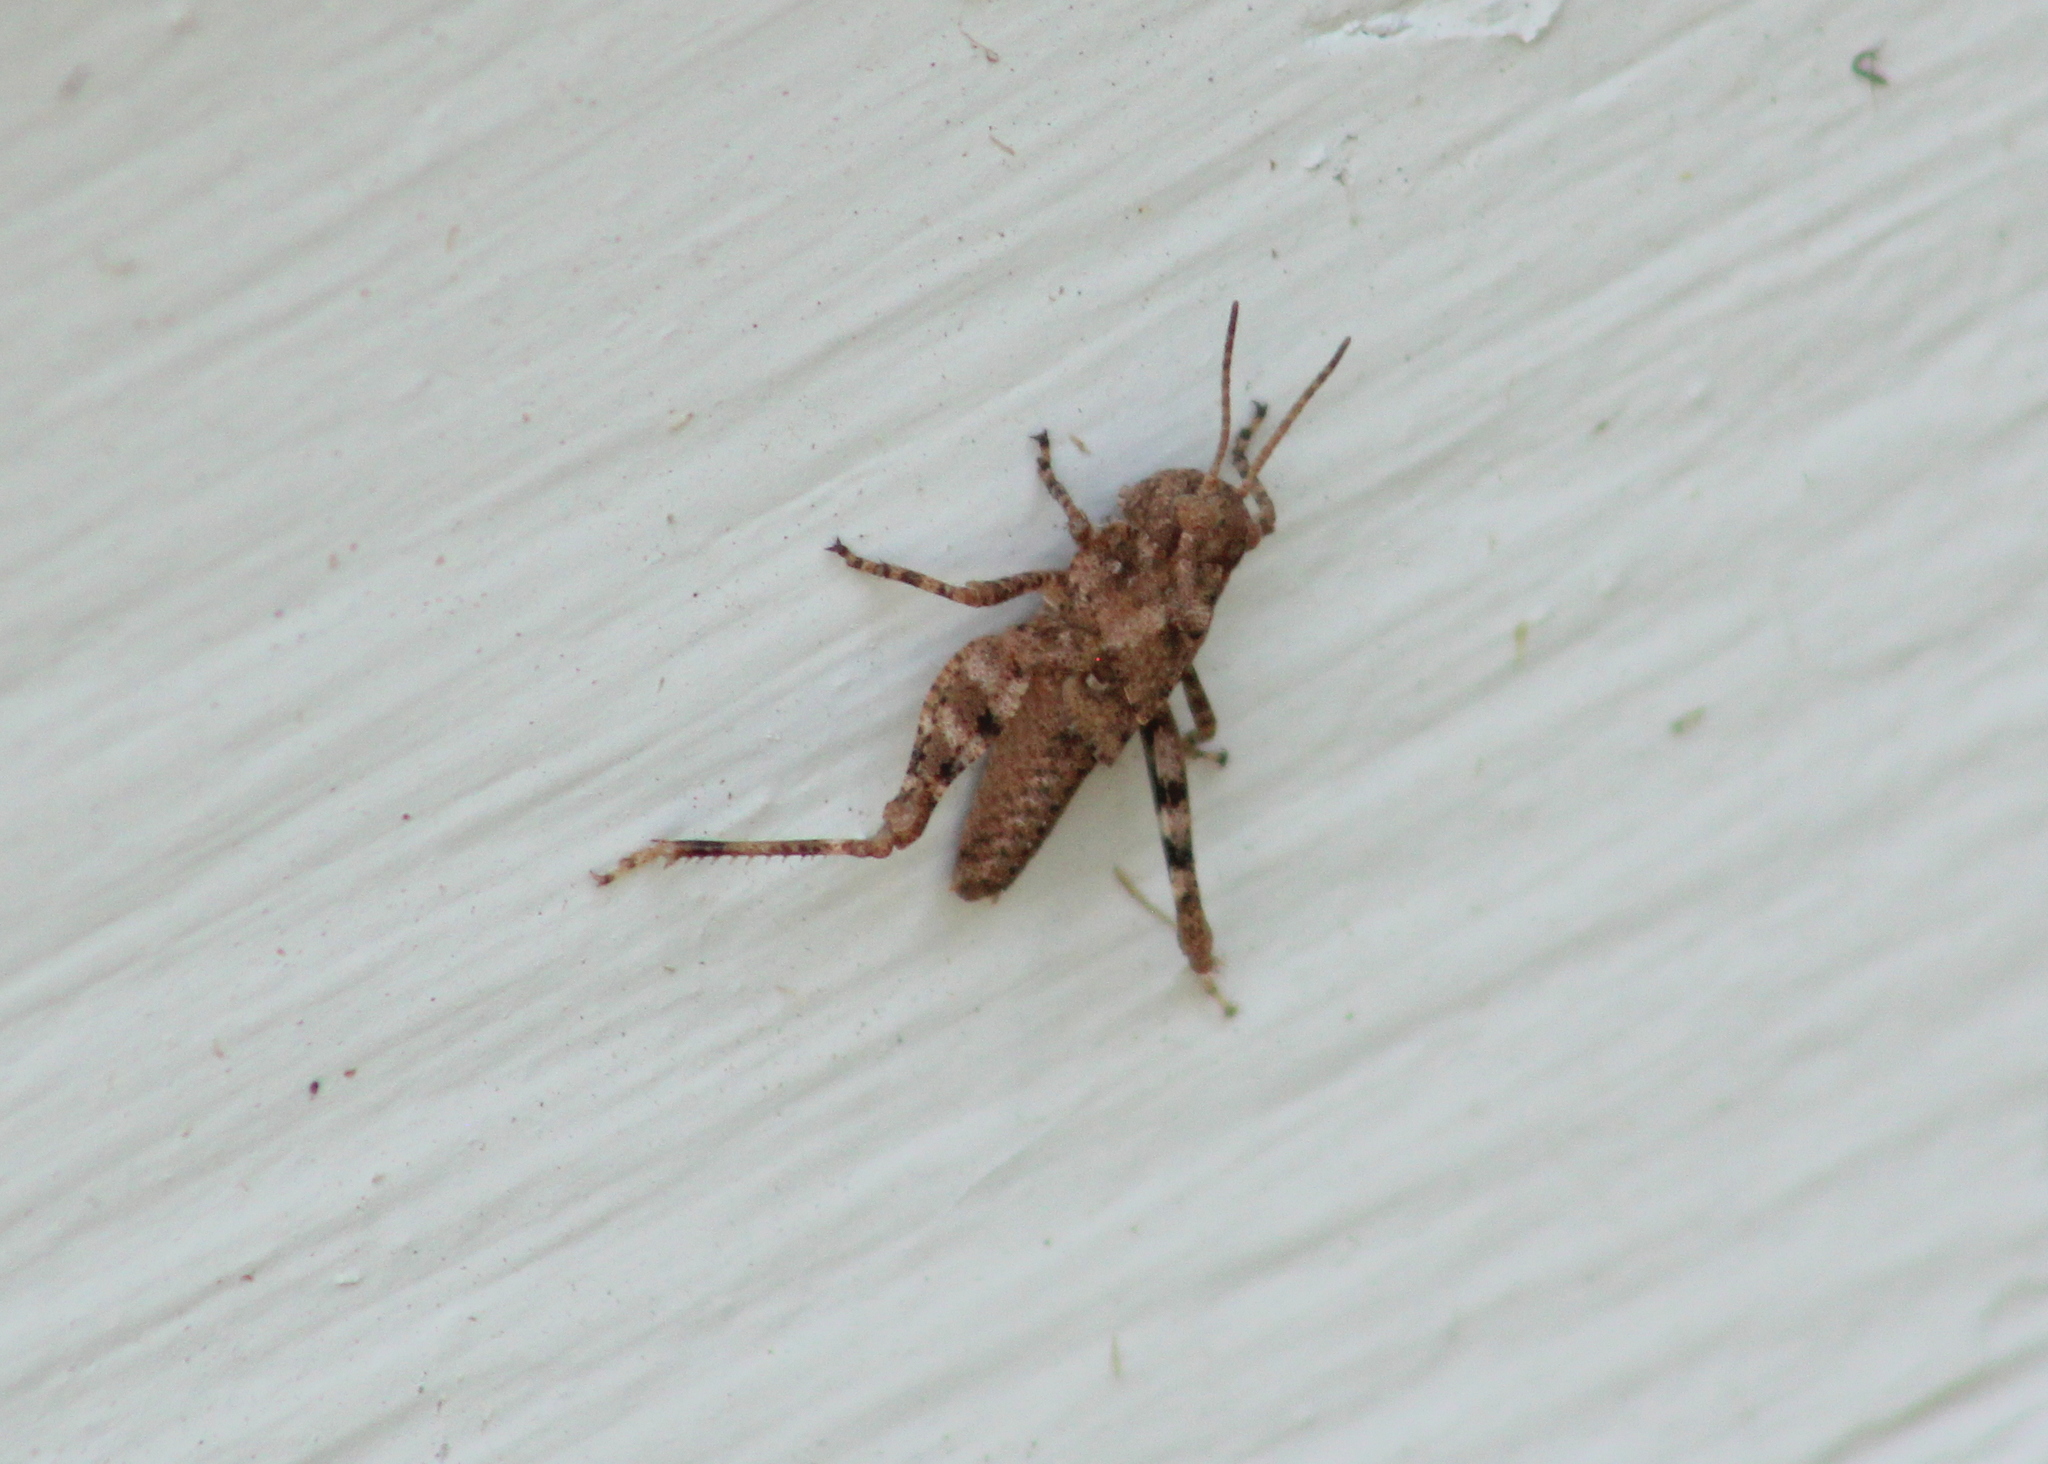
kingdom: Animalia
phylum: Arthropoda
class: Insecta
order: Orthoptera
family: Acrididae
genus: Dissosteira
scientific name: Dissosteira carolina
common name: Carolina grasshopper
